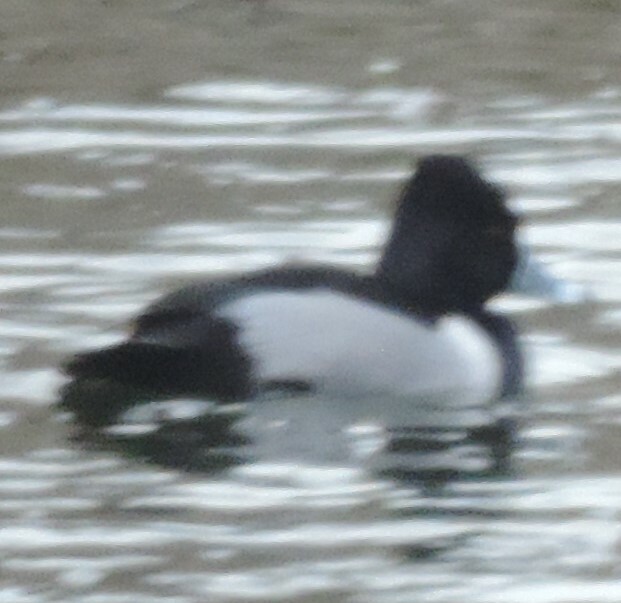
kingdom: Animalia
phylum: Chordata
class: Aves
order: Anseriformes
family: Anatidae
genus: Aythya
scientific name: Aythya collaris
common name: Ring-necked duck
